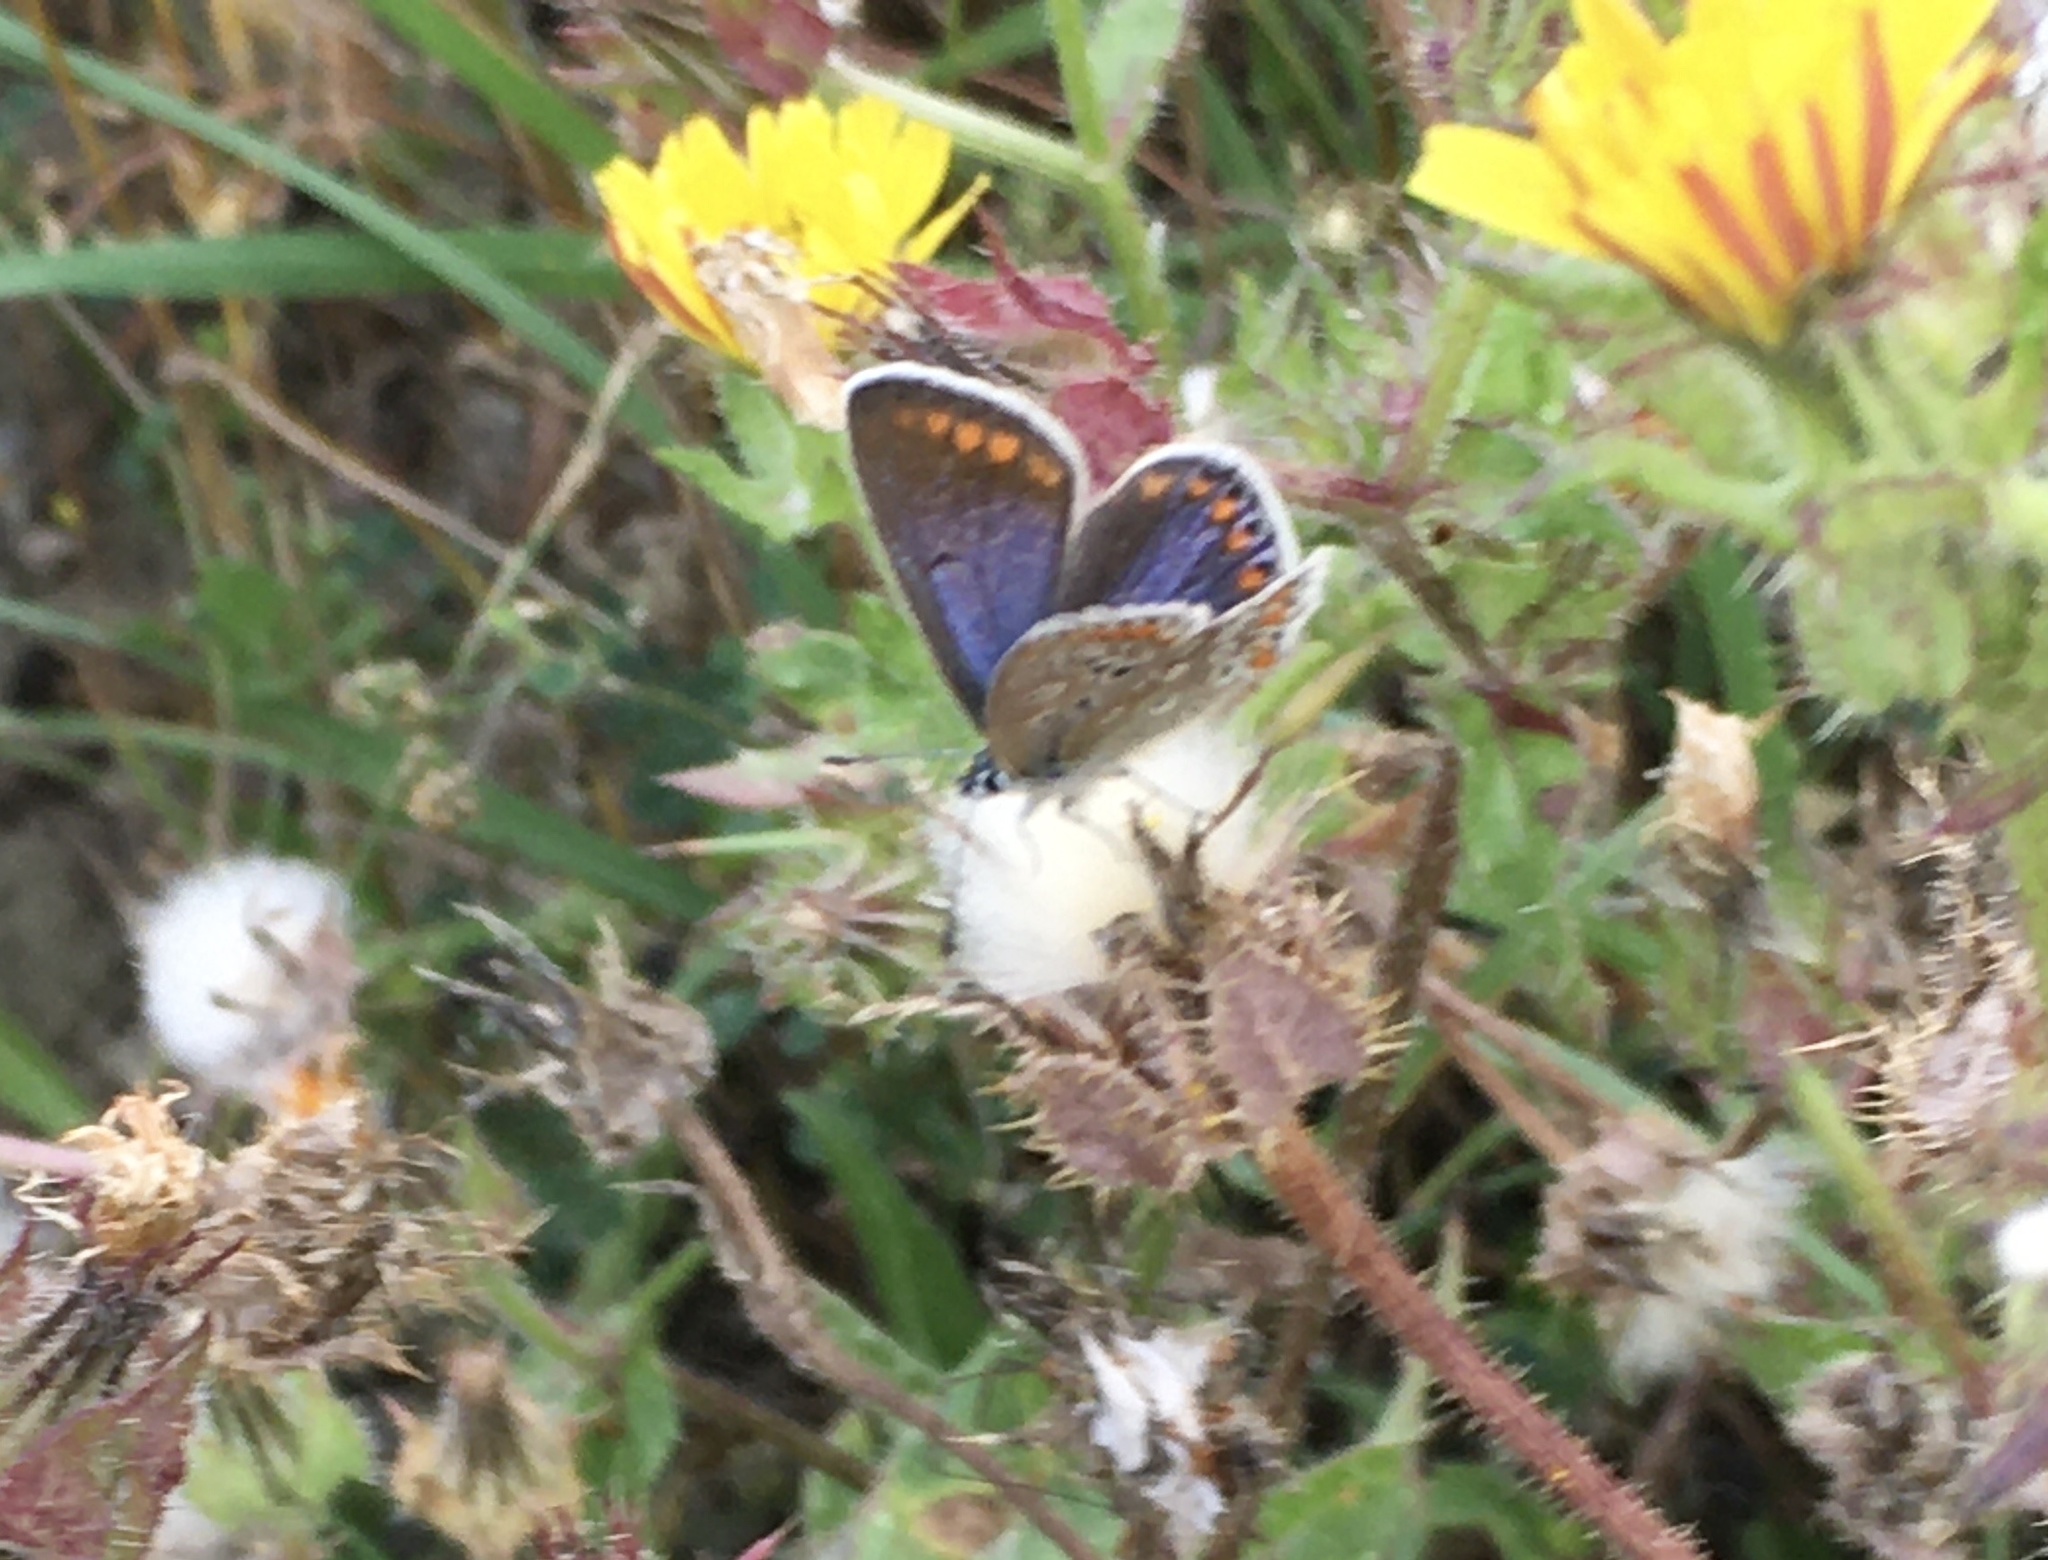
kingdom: Animalia
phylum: Arthropoda
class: Insecta
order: Lepidoptera
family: Lycaenidae
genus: Polyommatus
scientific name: Polyommatus icarus
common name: Common blue
